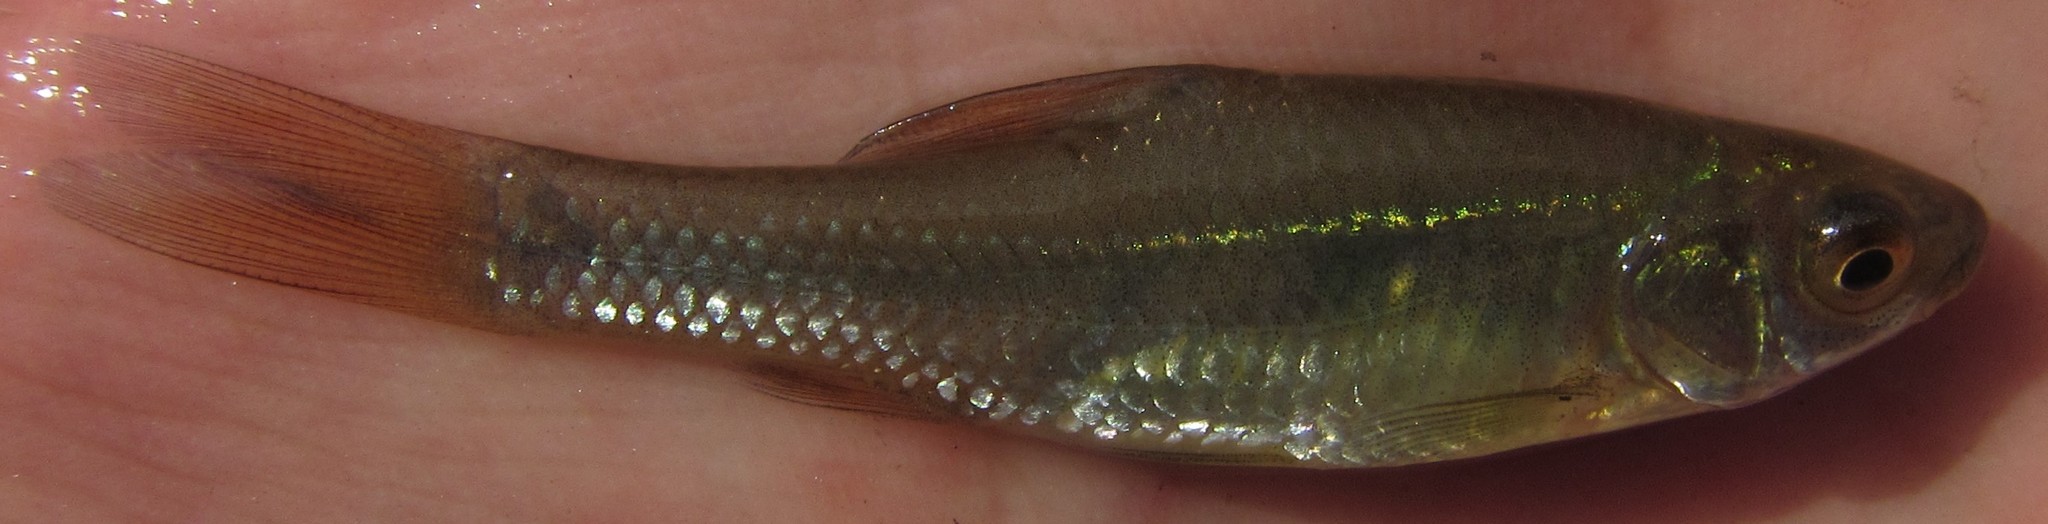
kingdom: Animalia
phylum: Chordata
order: Cypriniformes
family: Cyprinidae
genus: Enteromius
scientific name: Enteromius paludinosus
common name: Straightfin barb
